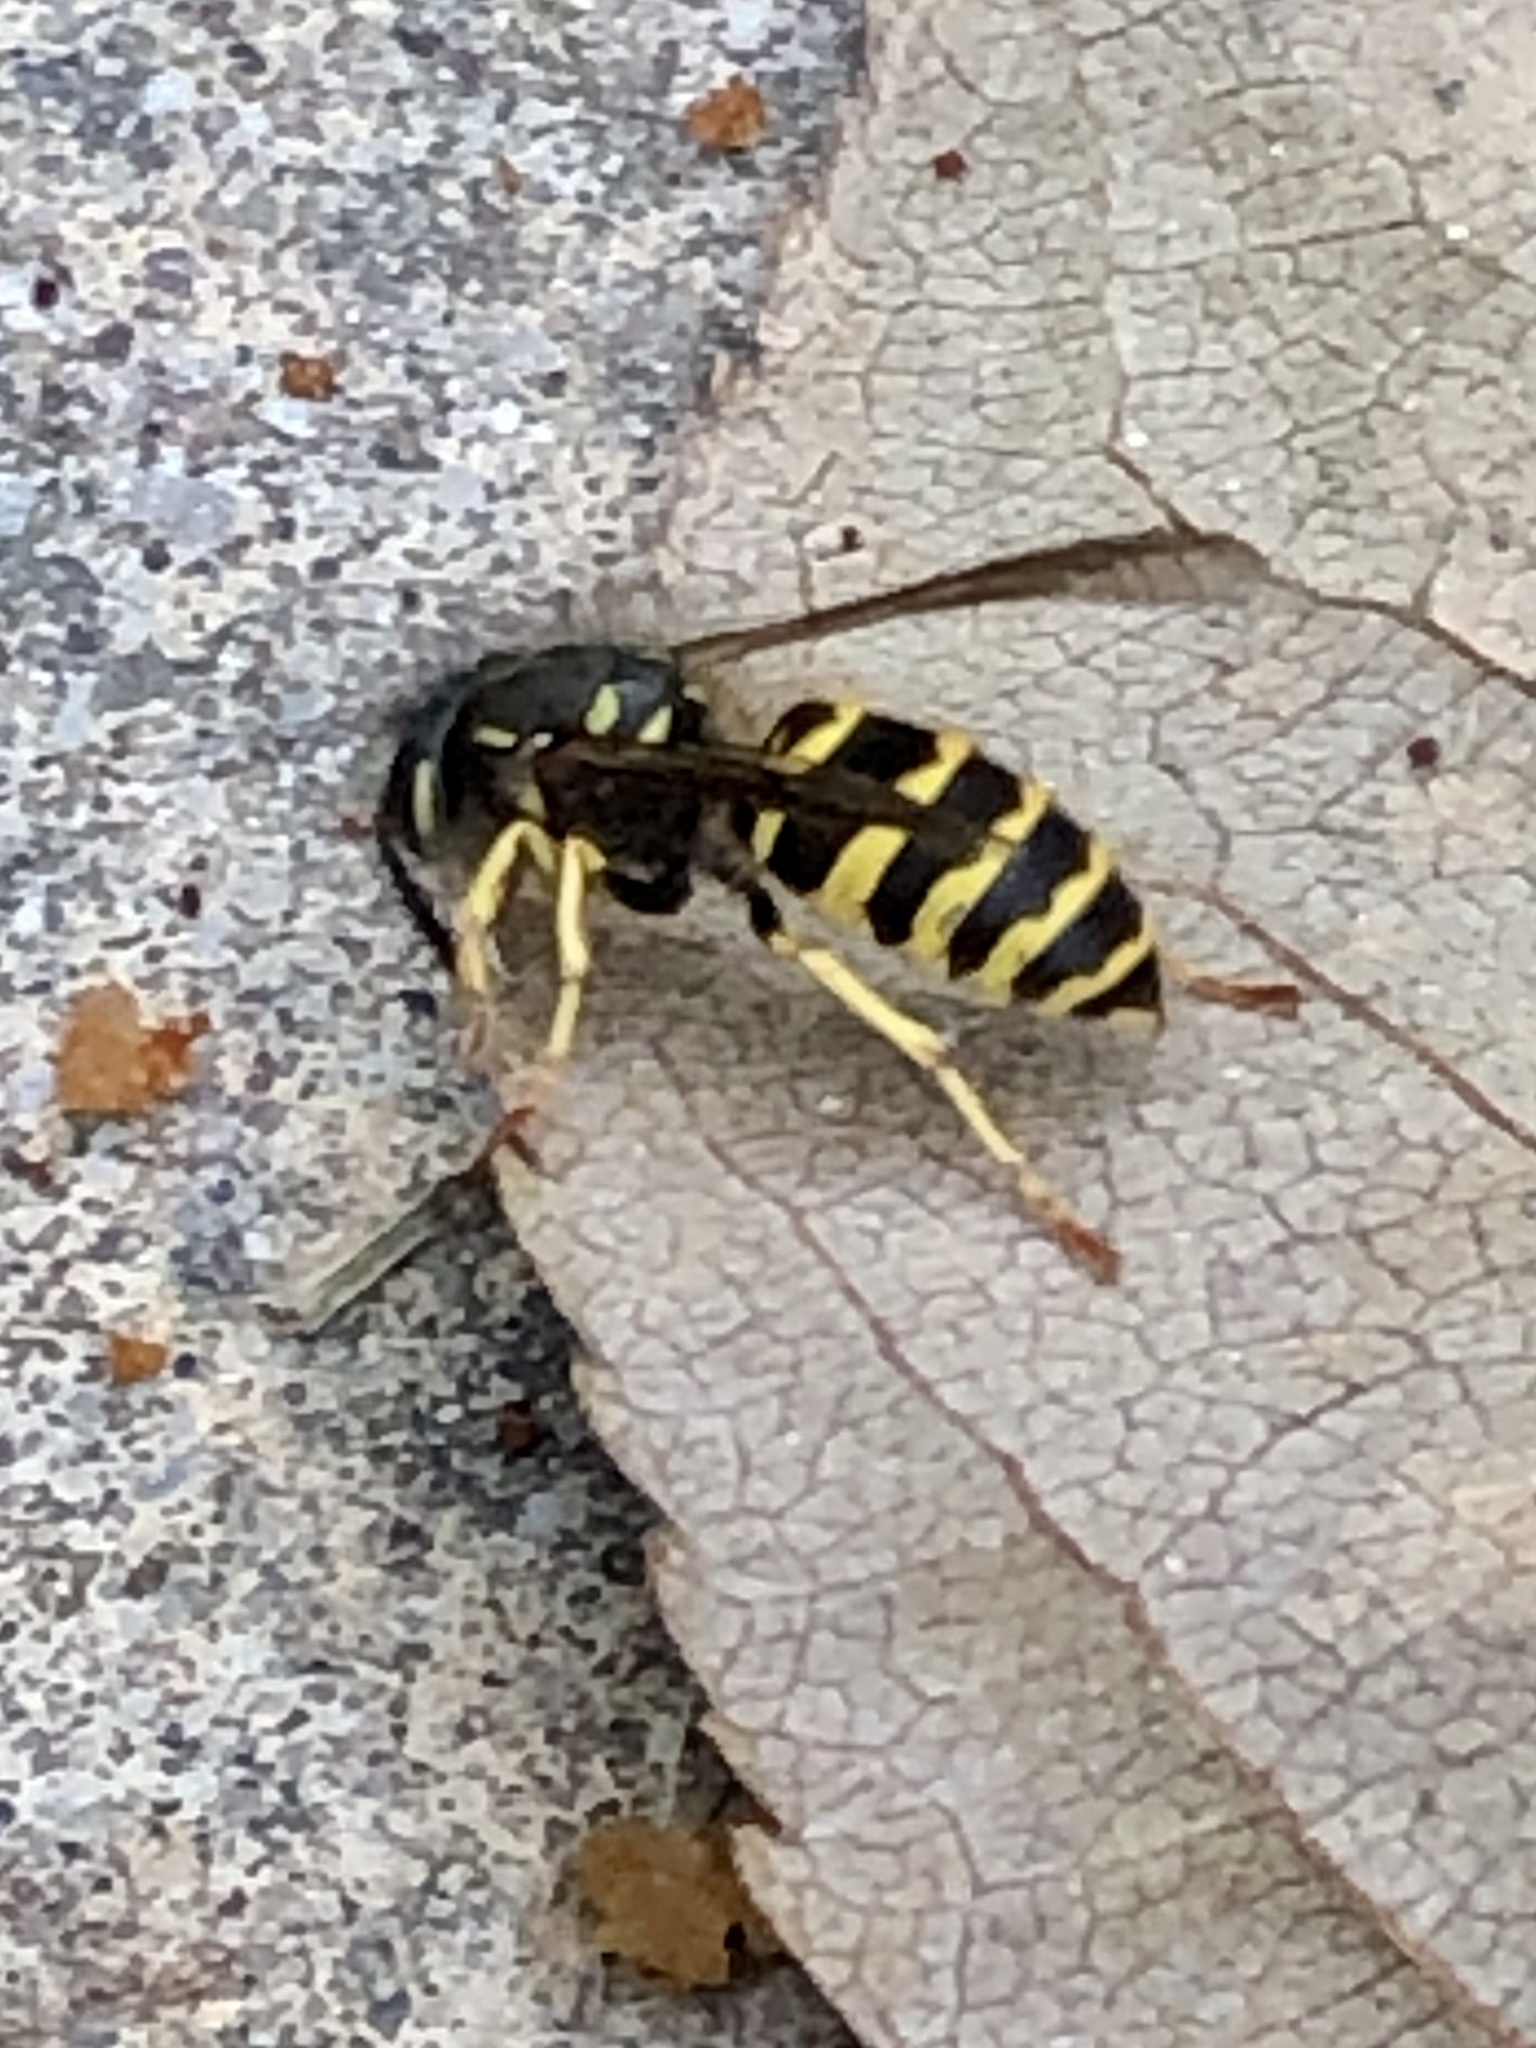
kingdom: Animalia
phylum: Arthropoda
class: Insecta
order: Hymenoptera
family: Vespidae
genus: Vespula
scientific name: Vespula alascensis
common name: Alaska yellowjacket
